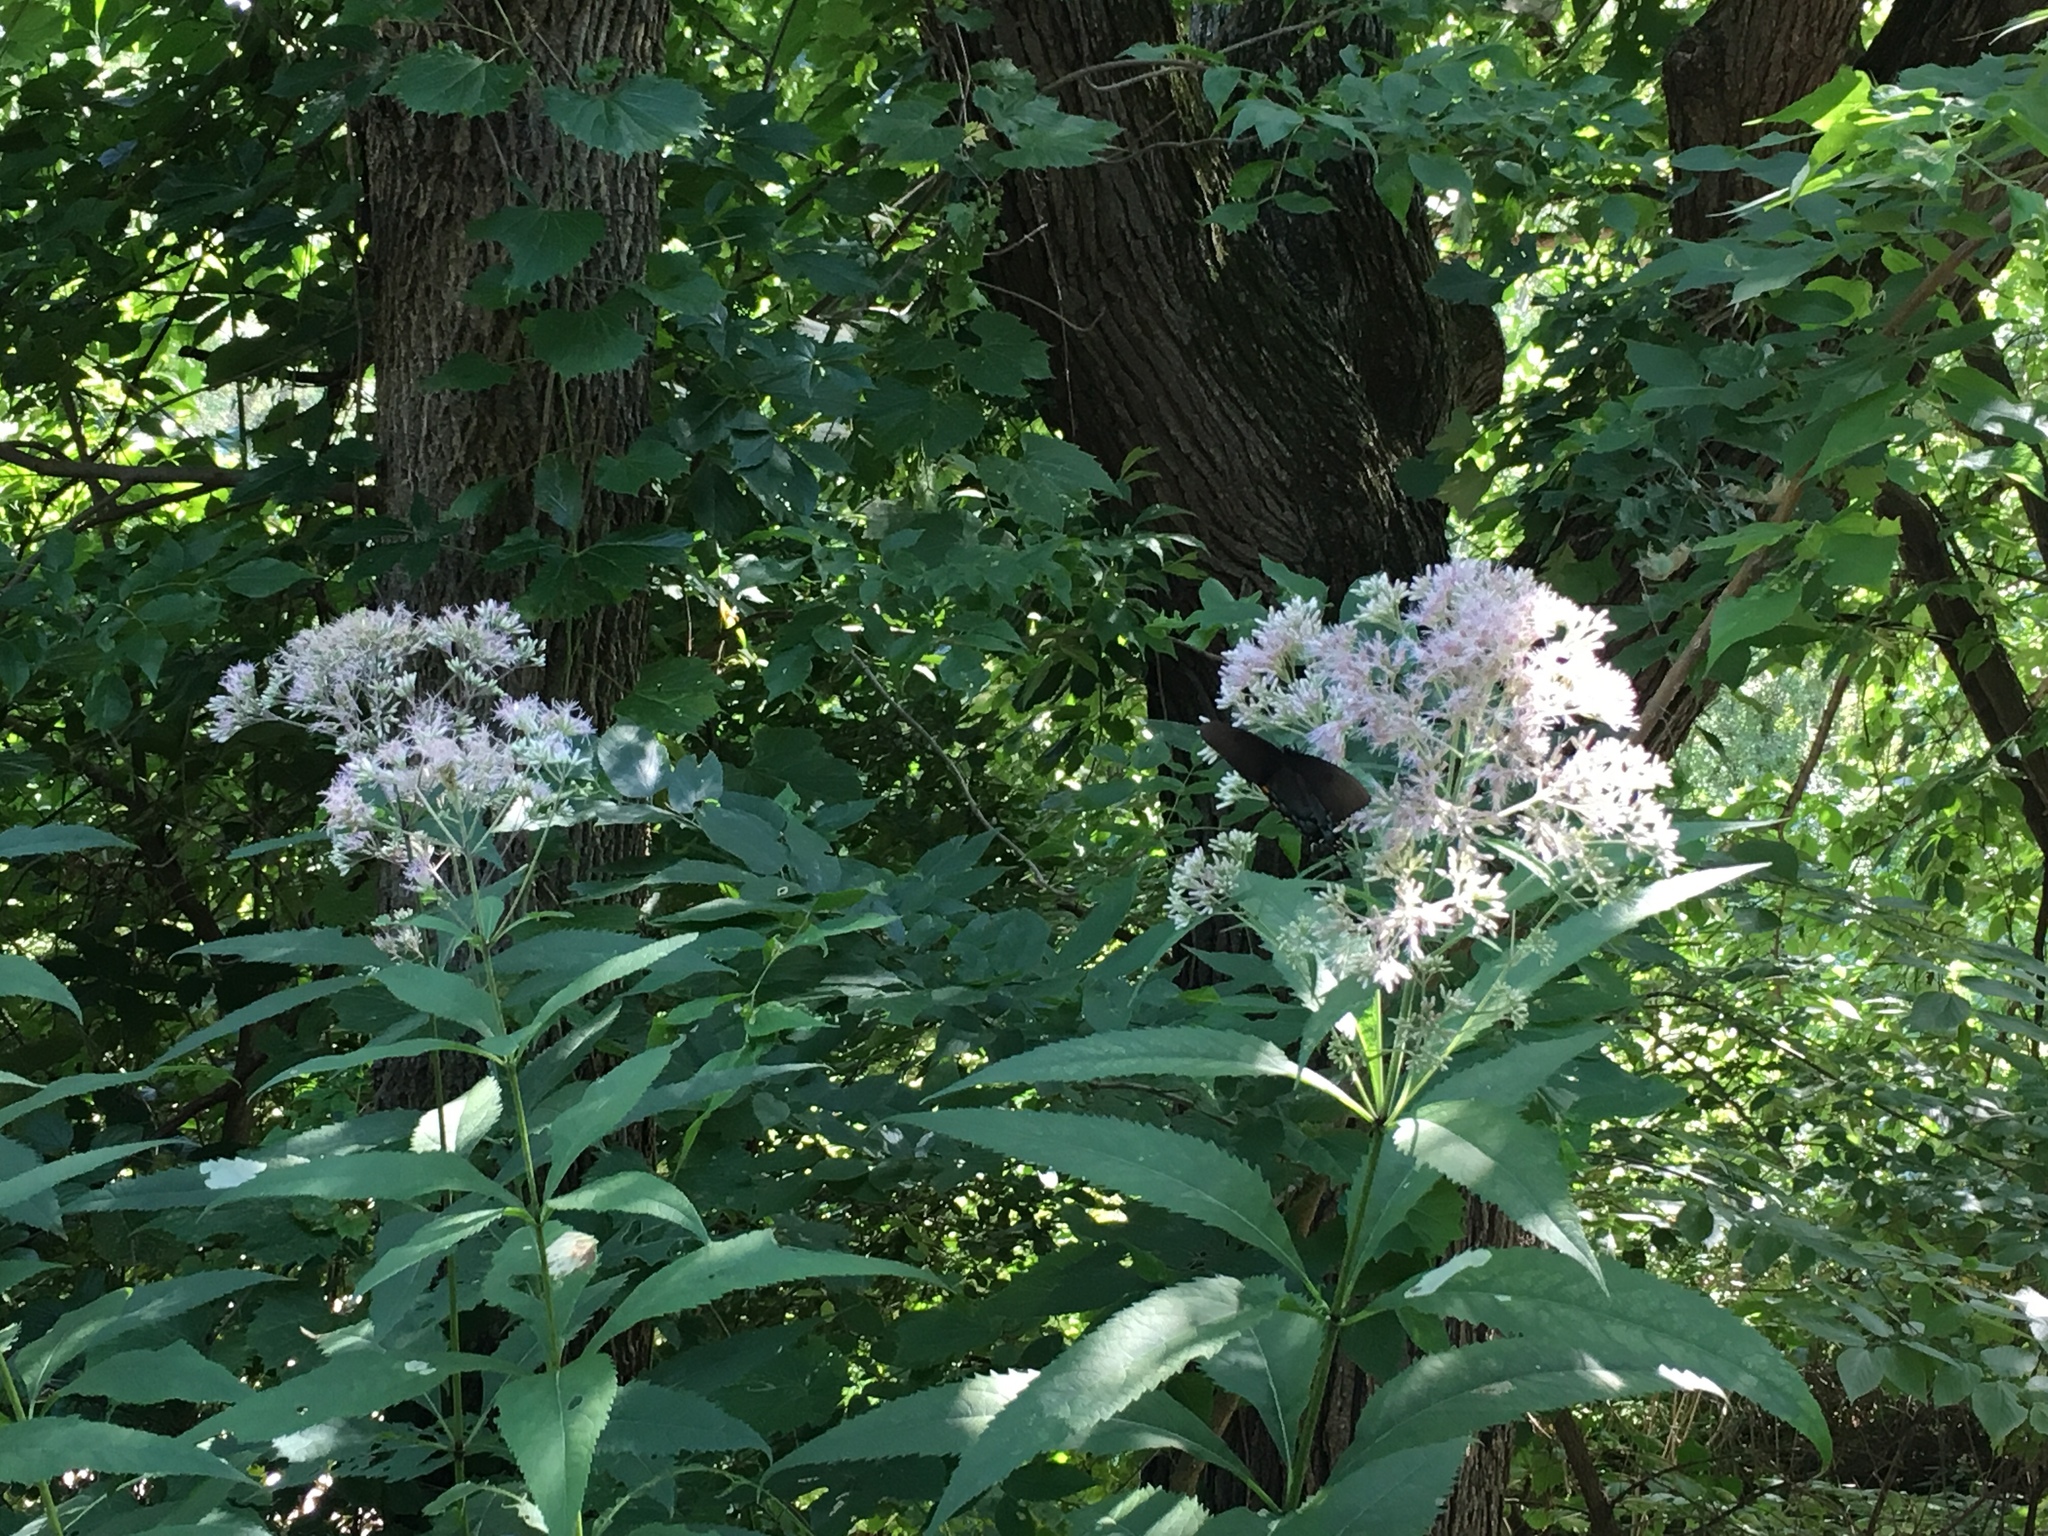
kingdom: Animalia
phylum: Arthropoda
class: Insecta
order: Lepidoptera
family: Papilionidae
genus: Papilio
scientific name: Papilio glaucus
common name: Tiger swallowtail
